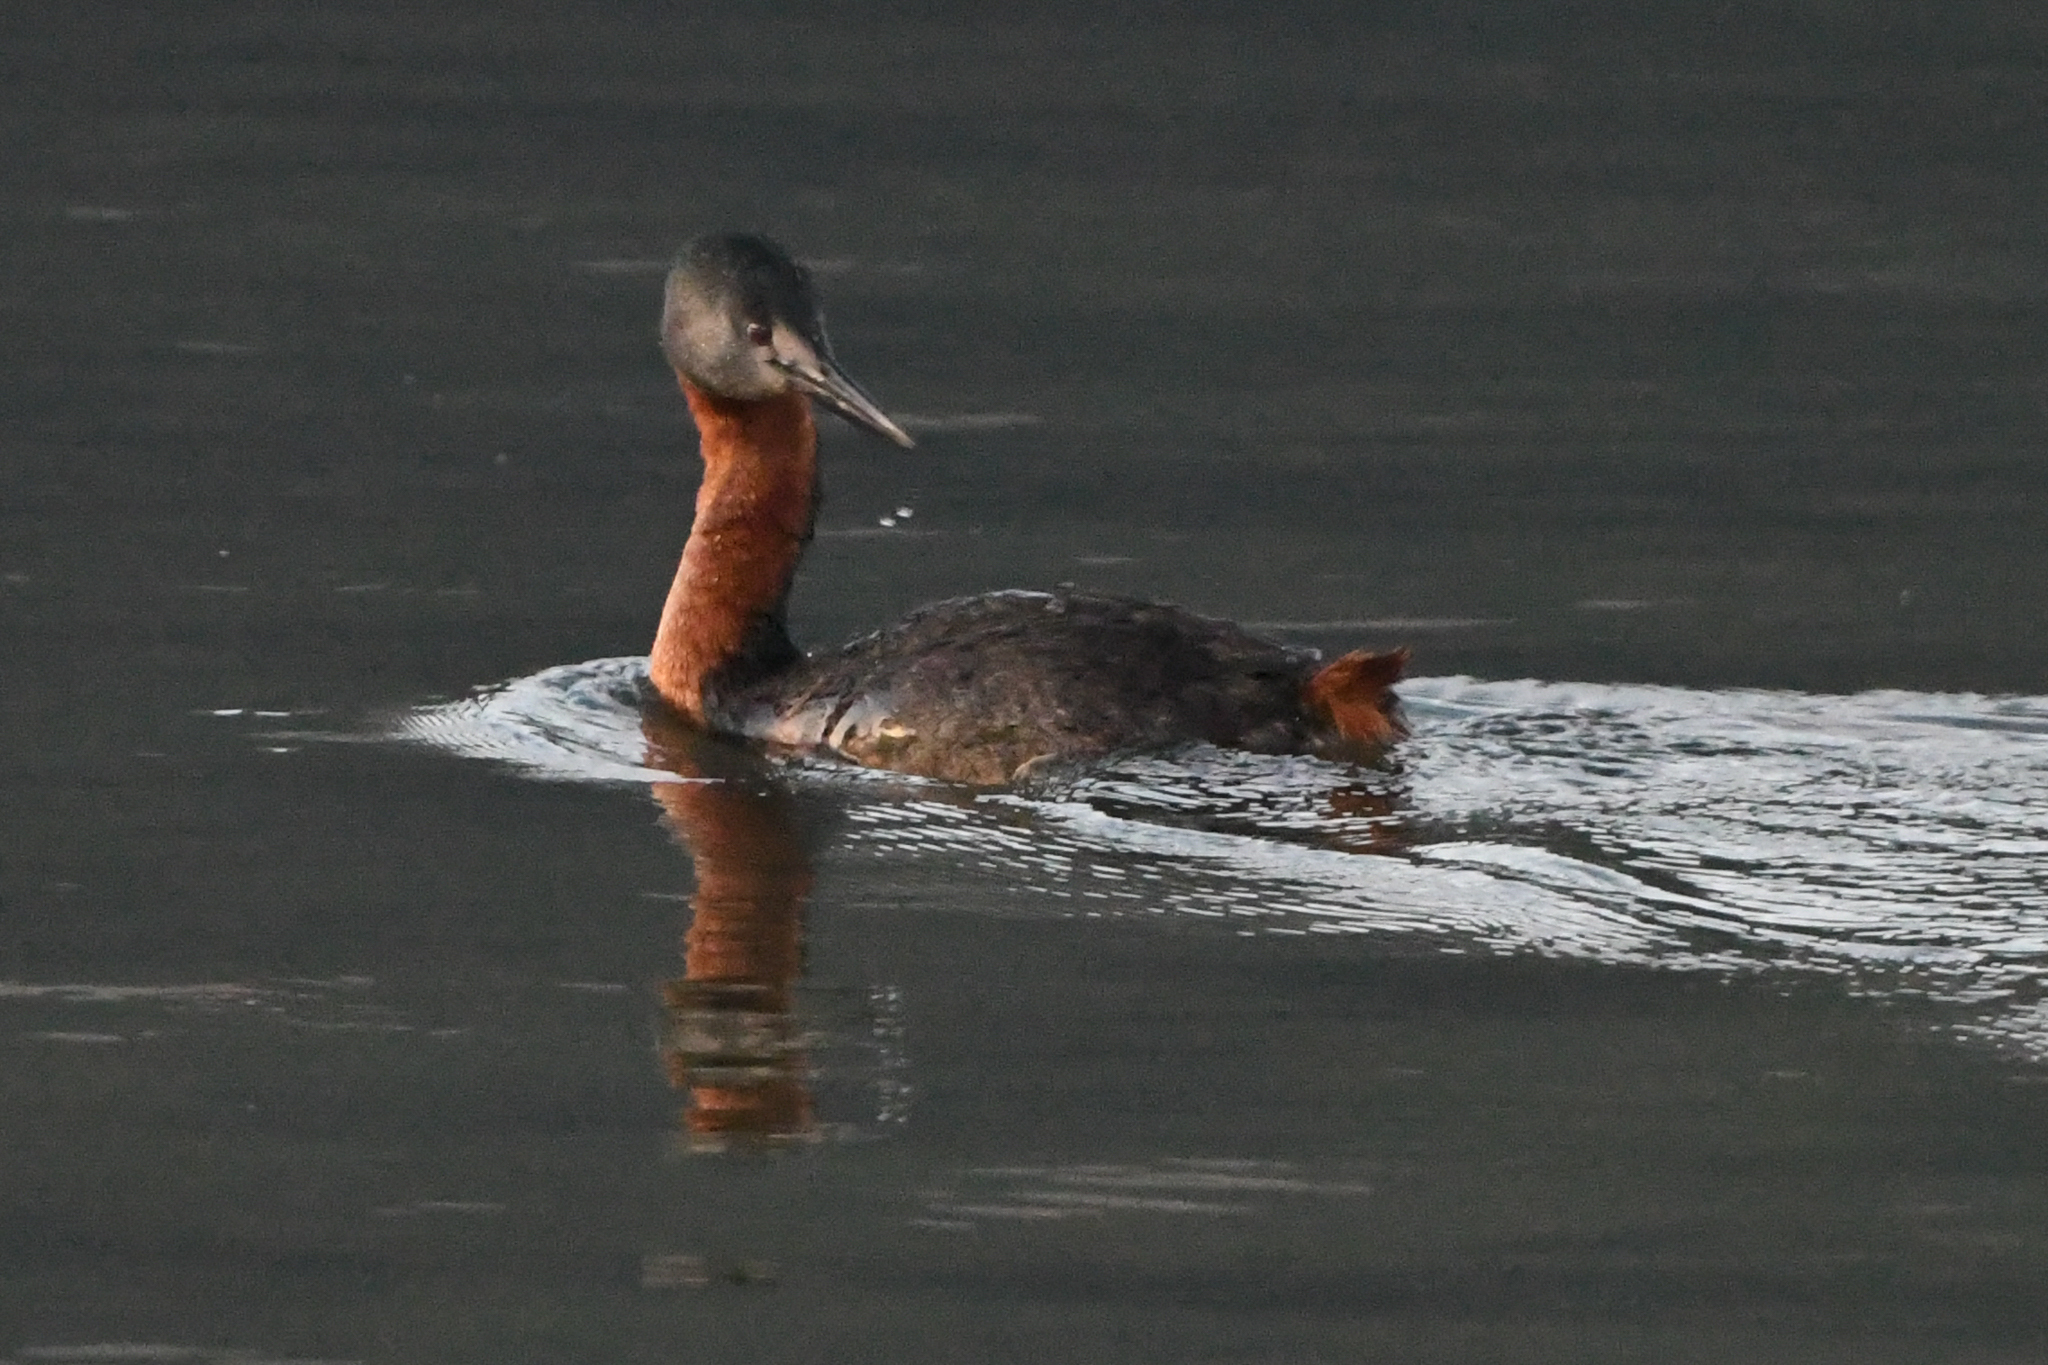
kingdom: Animalia
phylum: Chordata
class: Aves
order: Podicipediformes
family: Podicipedidae
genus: Podiceps
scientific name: Podiceps major
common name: Great grebe
